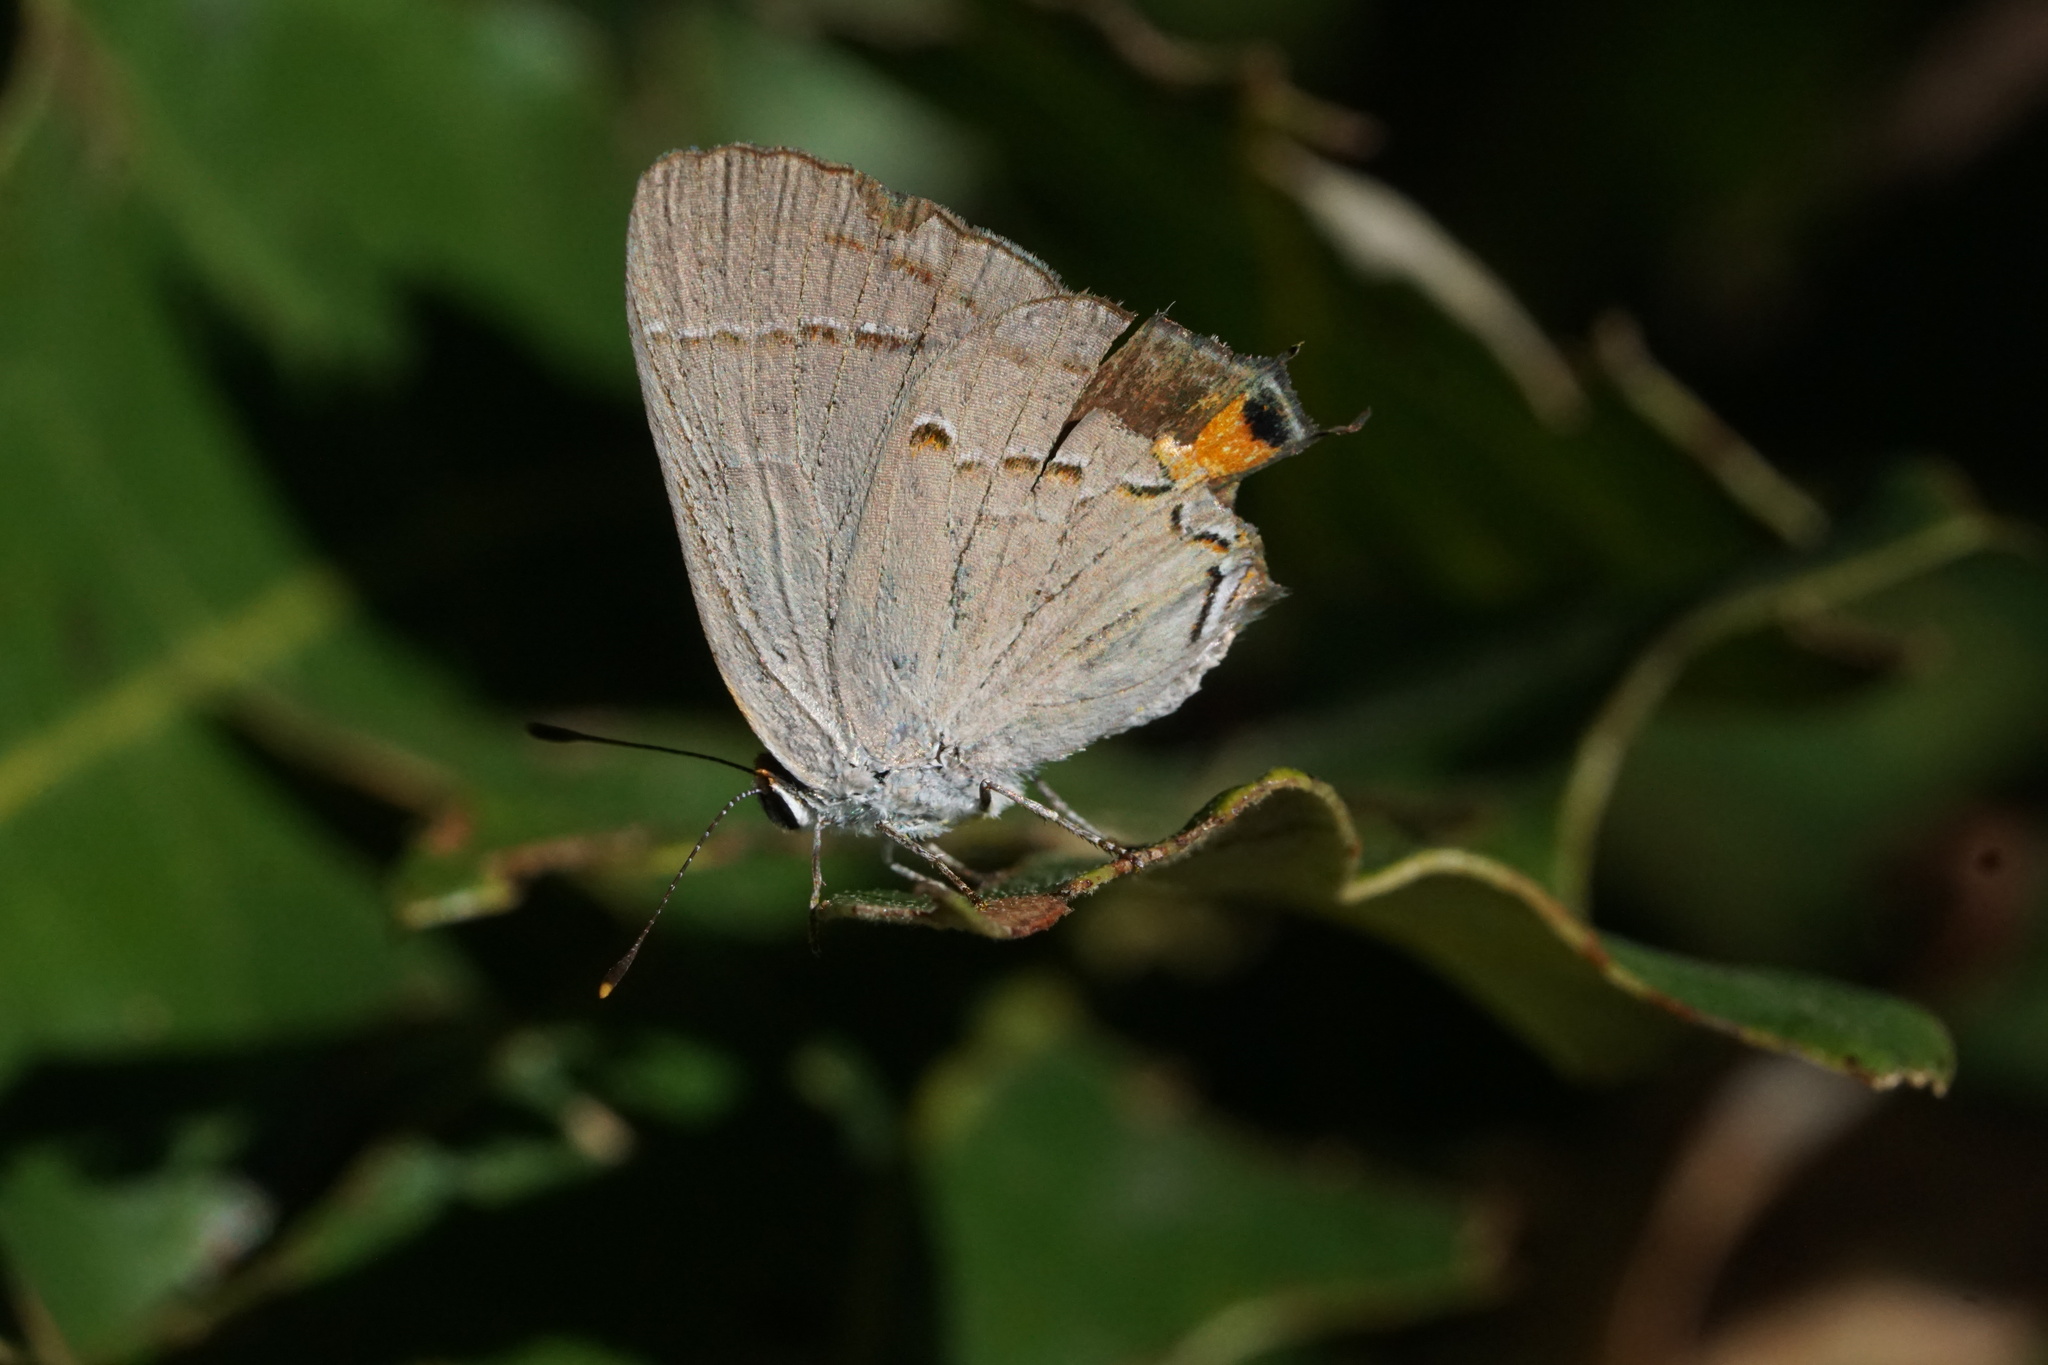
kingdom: Animalia
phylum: Arthropoda
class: Insecta
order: Lepidoptera
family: Lycaenidae
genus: Strymon
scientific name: Strymon melinus
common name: Gray hairstreak
